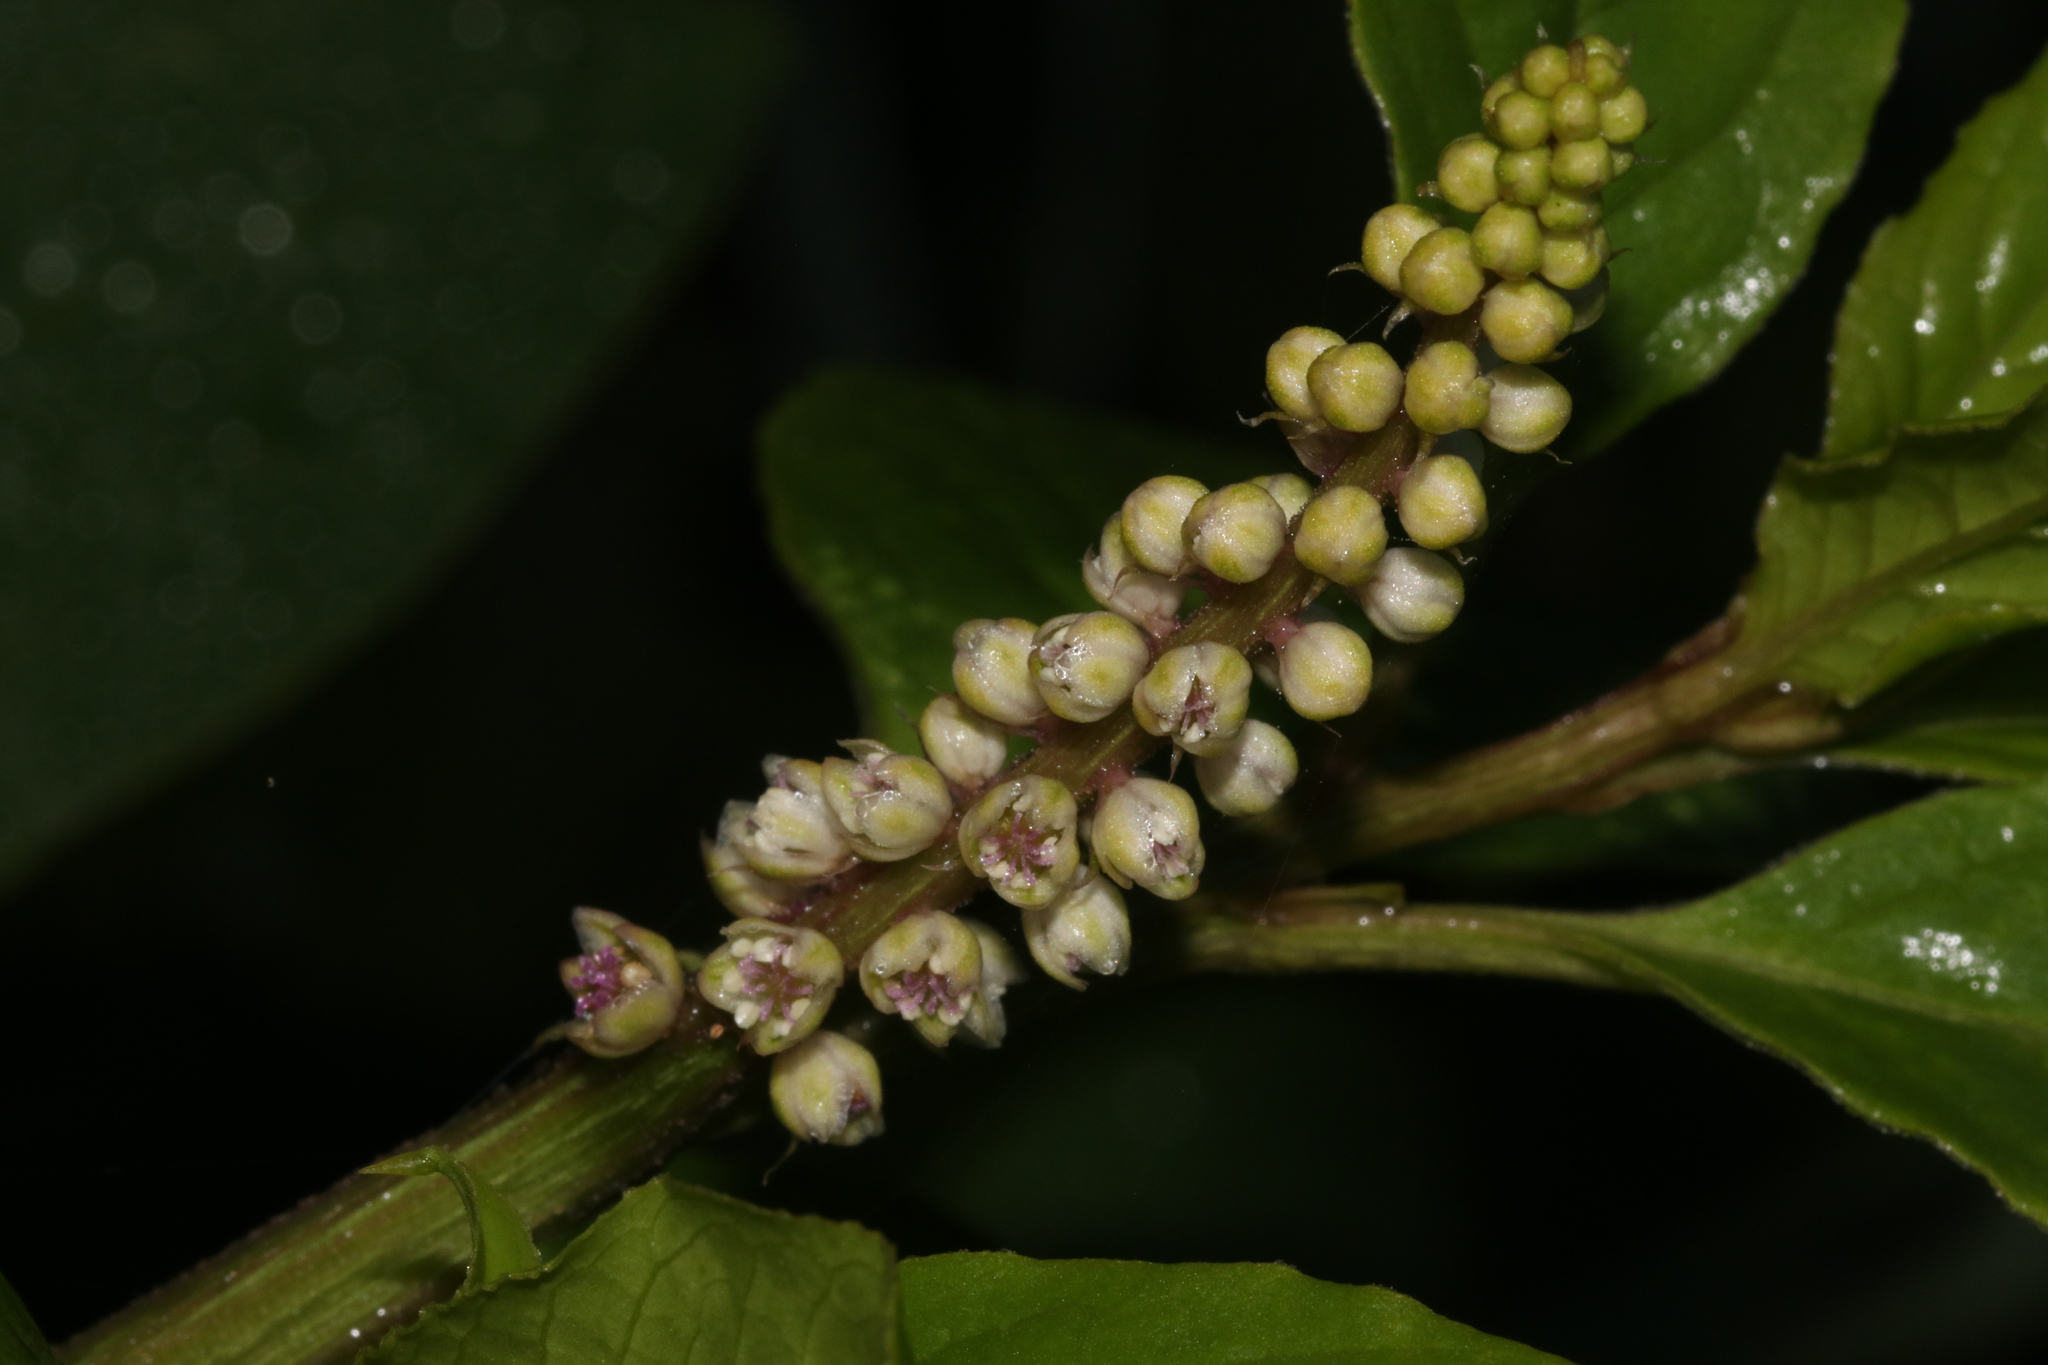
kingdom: Plantae
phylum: Tracheophyta
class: Magnoliopsida
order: Caryophyllales
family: Phytolaccaceae
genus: Phytolacca
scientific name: Phytolacca icosandra
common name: Button pokeweed
